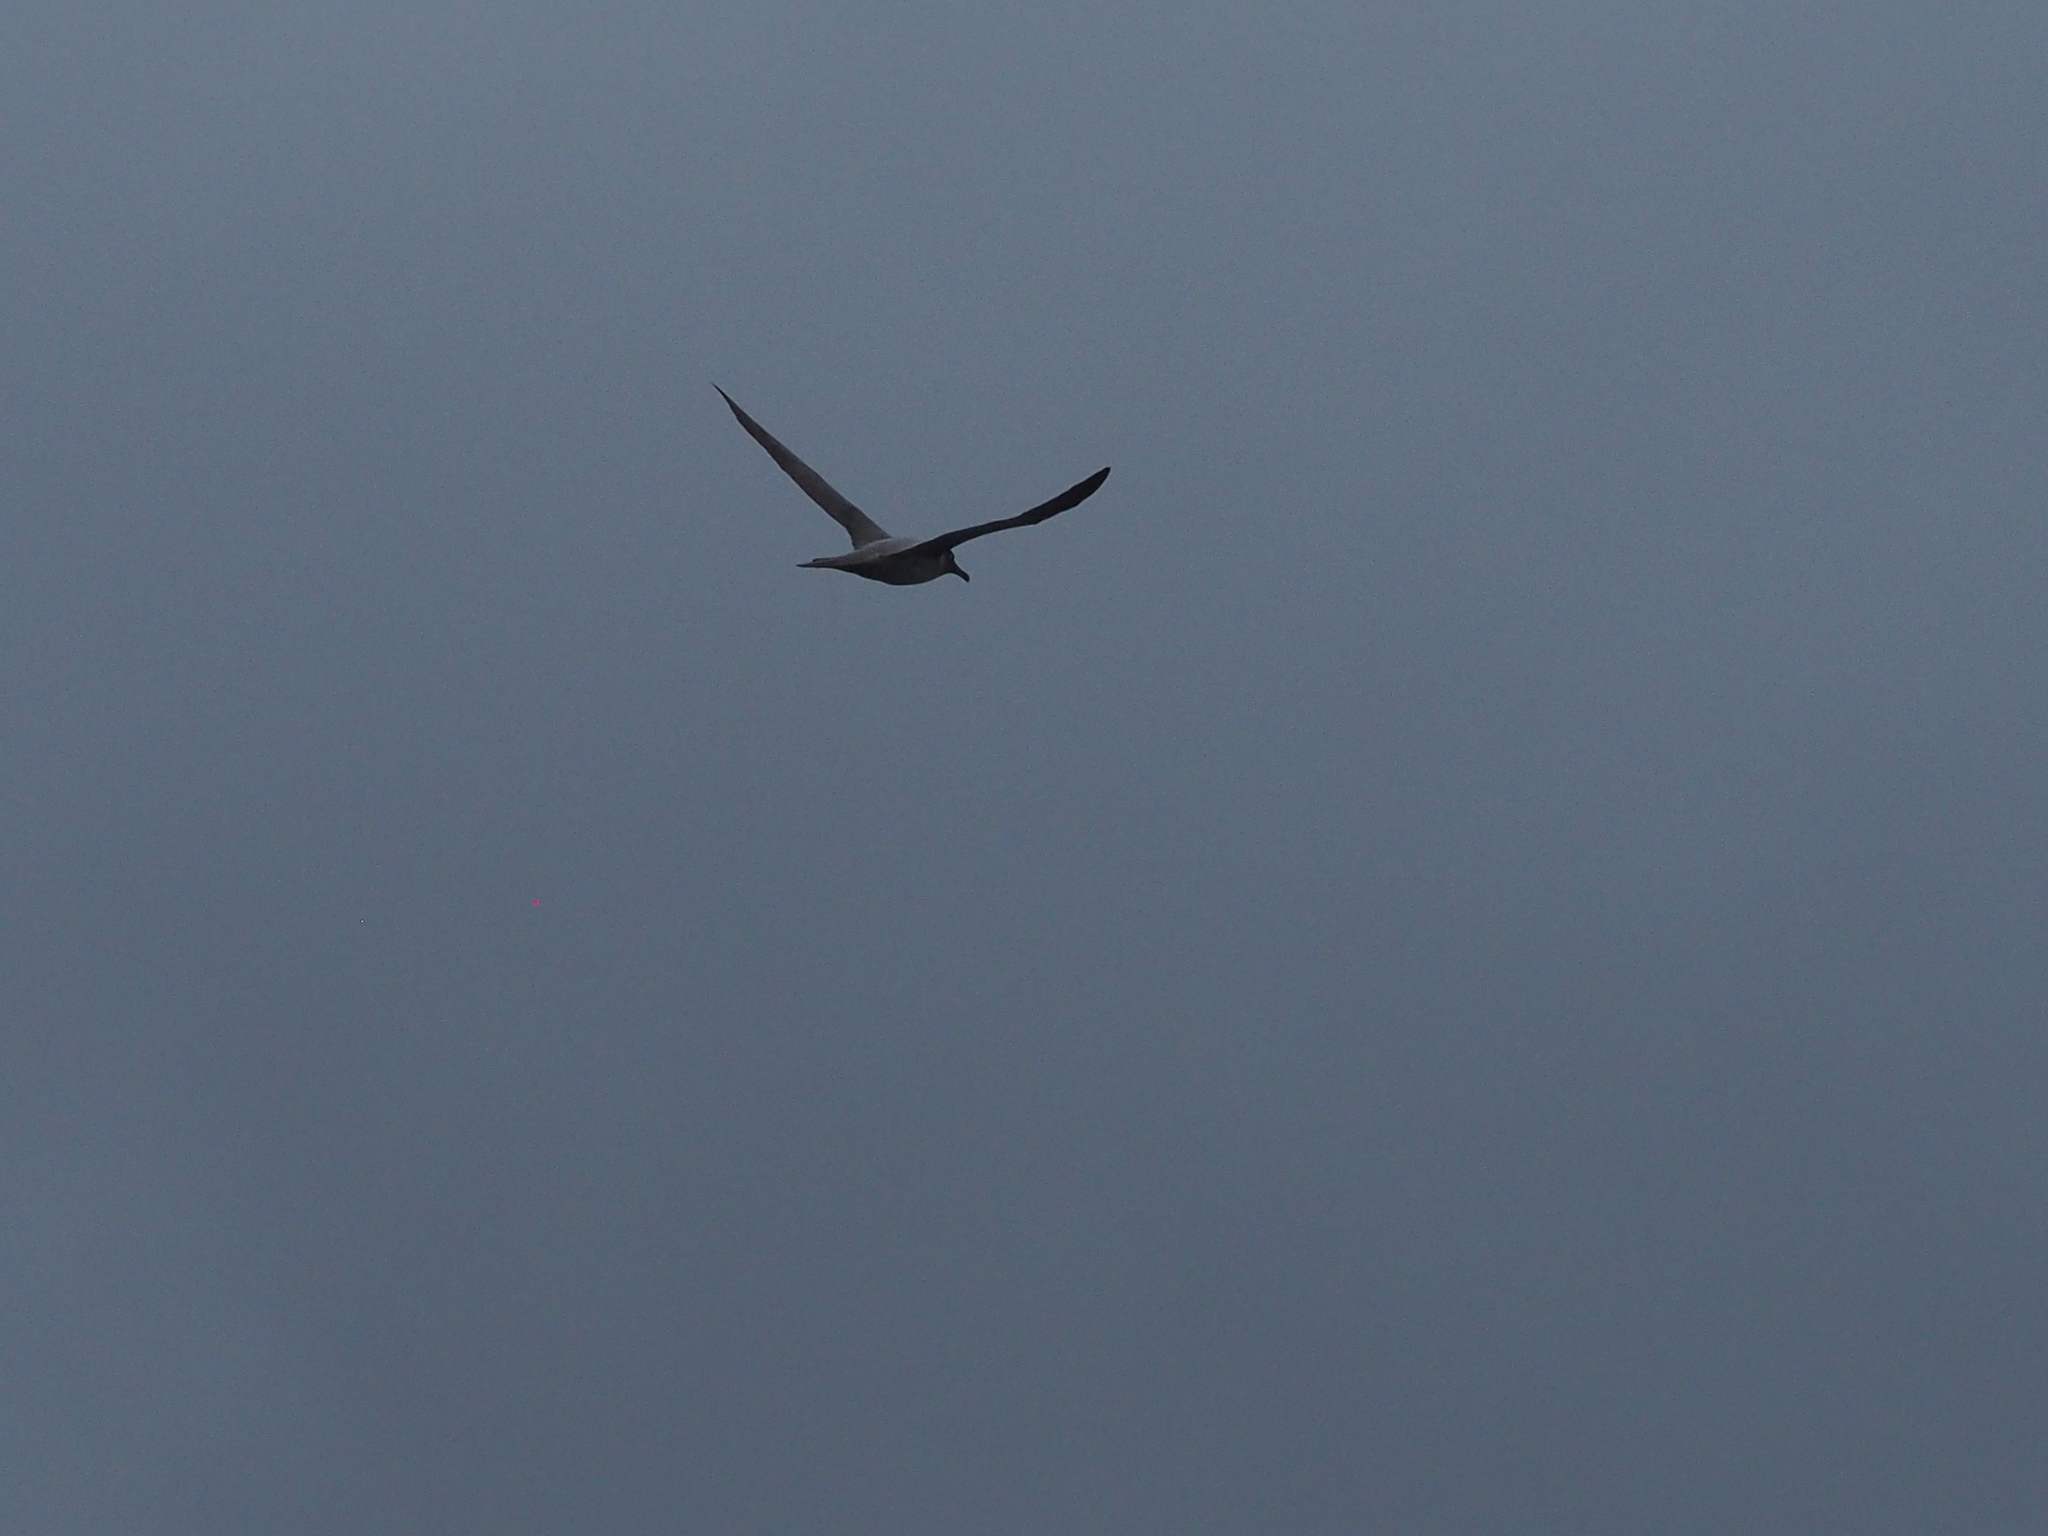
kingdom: Animalia
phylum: Chordata
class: Aves
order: Procellariiformes
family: Diomedeidae
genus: Phoebetria
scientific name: Phoebetria palpebrata
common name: Light-mantled albatross
